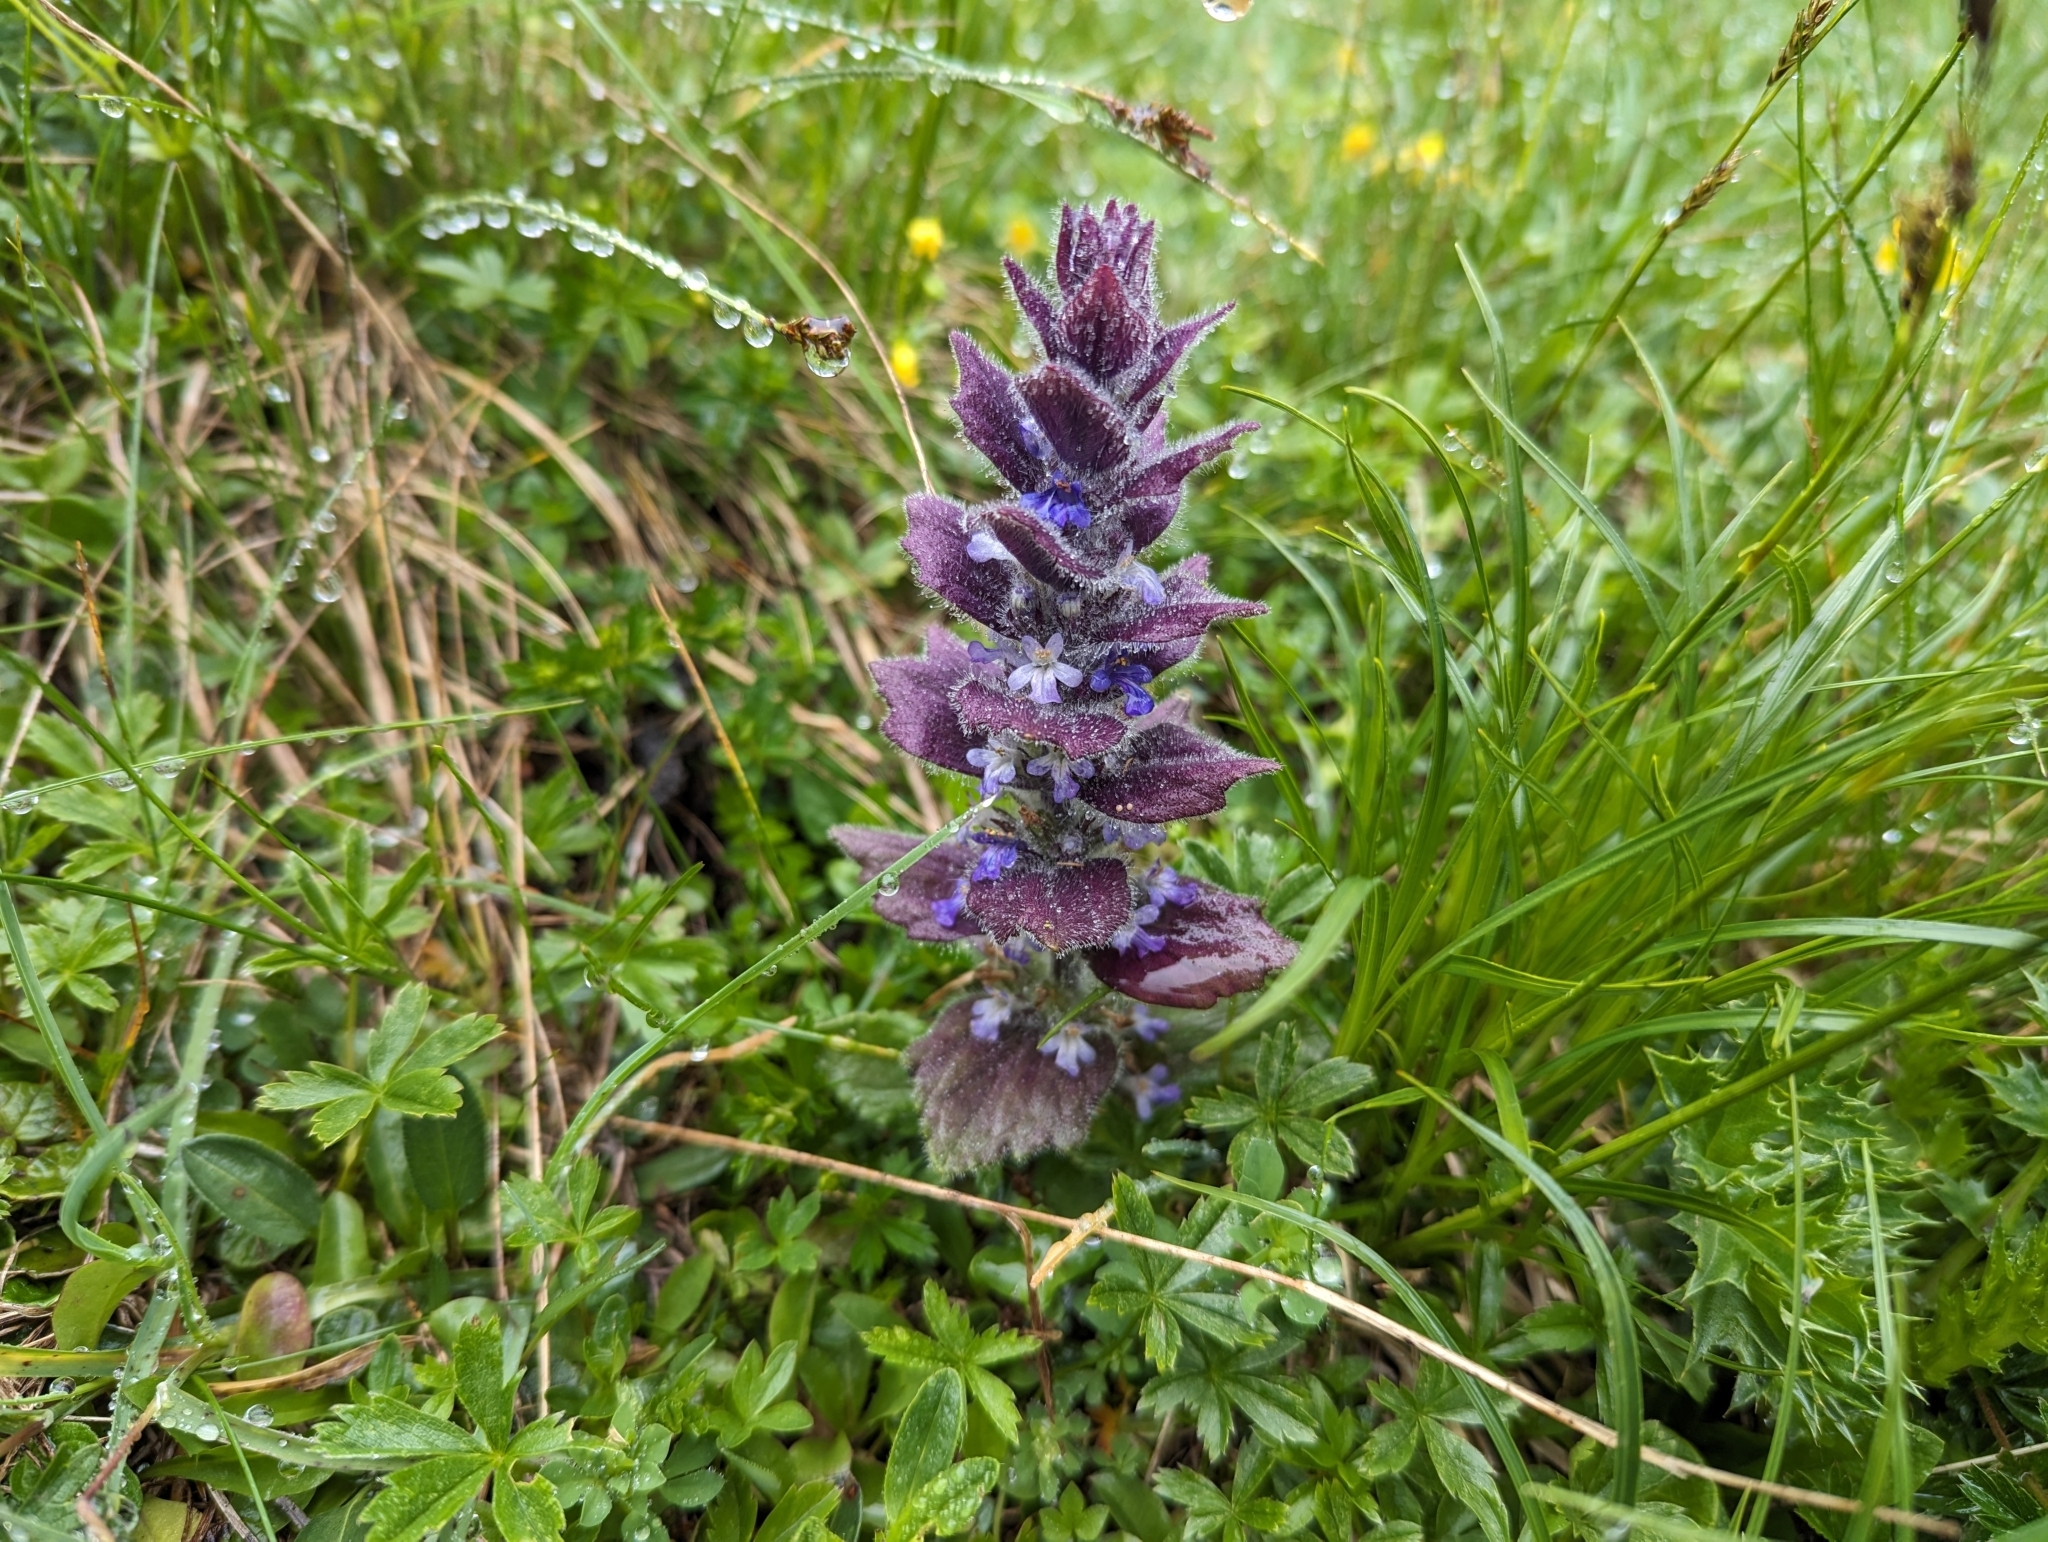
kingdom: Plantae
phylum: Tracheophyta
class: Magnoliopsida
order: Lamiales
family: Lamiaceae
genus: Ajuga
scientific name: Ajuga pyramidalis
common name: Pyramid bugle
